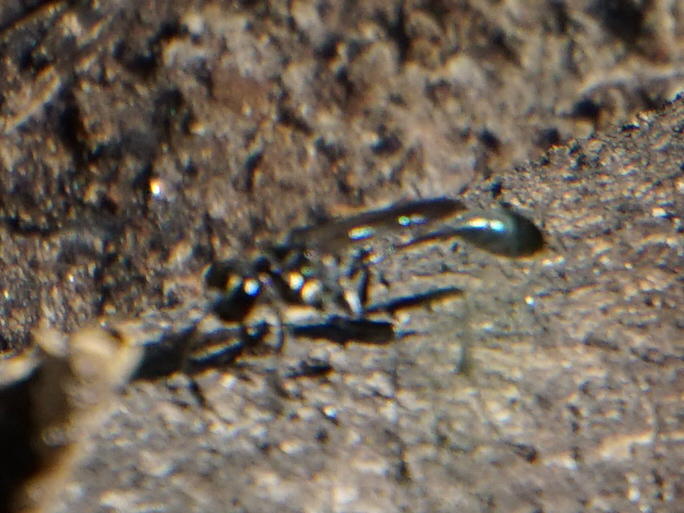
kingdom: Animalia
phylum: Arthropoda
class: Insecta
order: Hymenoptera
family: Sphecidae
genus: Eremnophila
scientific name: Eremnophila aureonotata
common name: Gold-marked thread-waisted wasp
